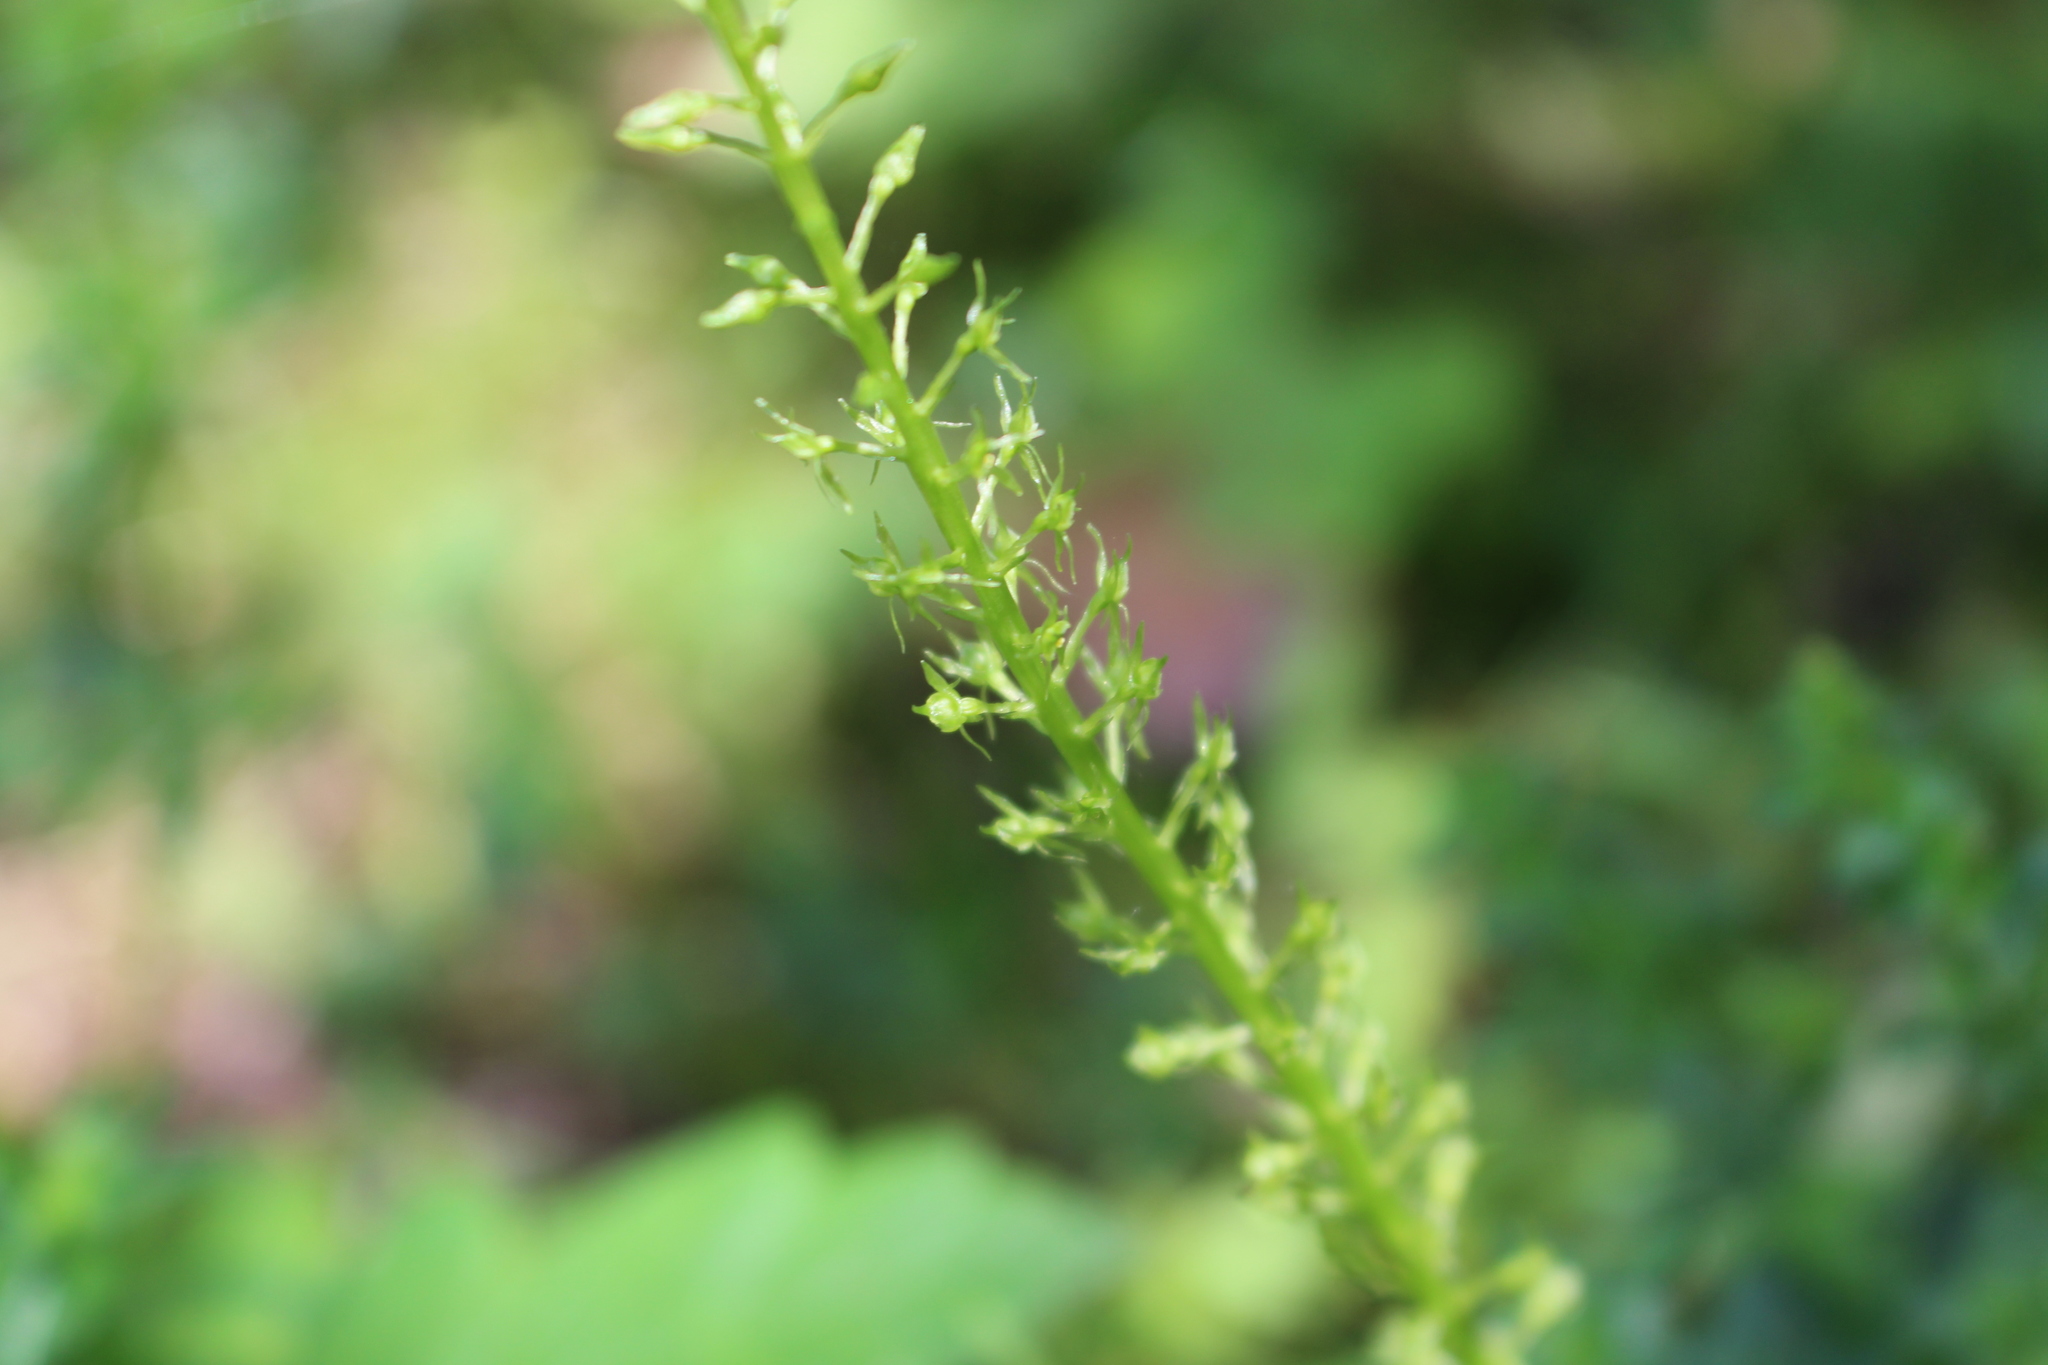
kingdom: Plantae
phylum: Tracheophyta
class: Liliopsida
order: Asparagales
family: Orchidaceae
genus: Malaxis
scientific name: Malaxis monophyllos
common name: White adder's-mouth
